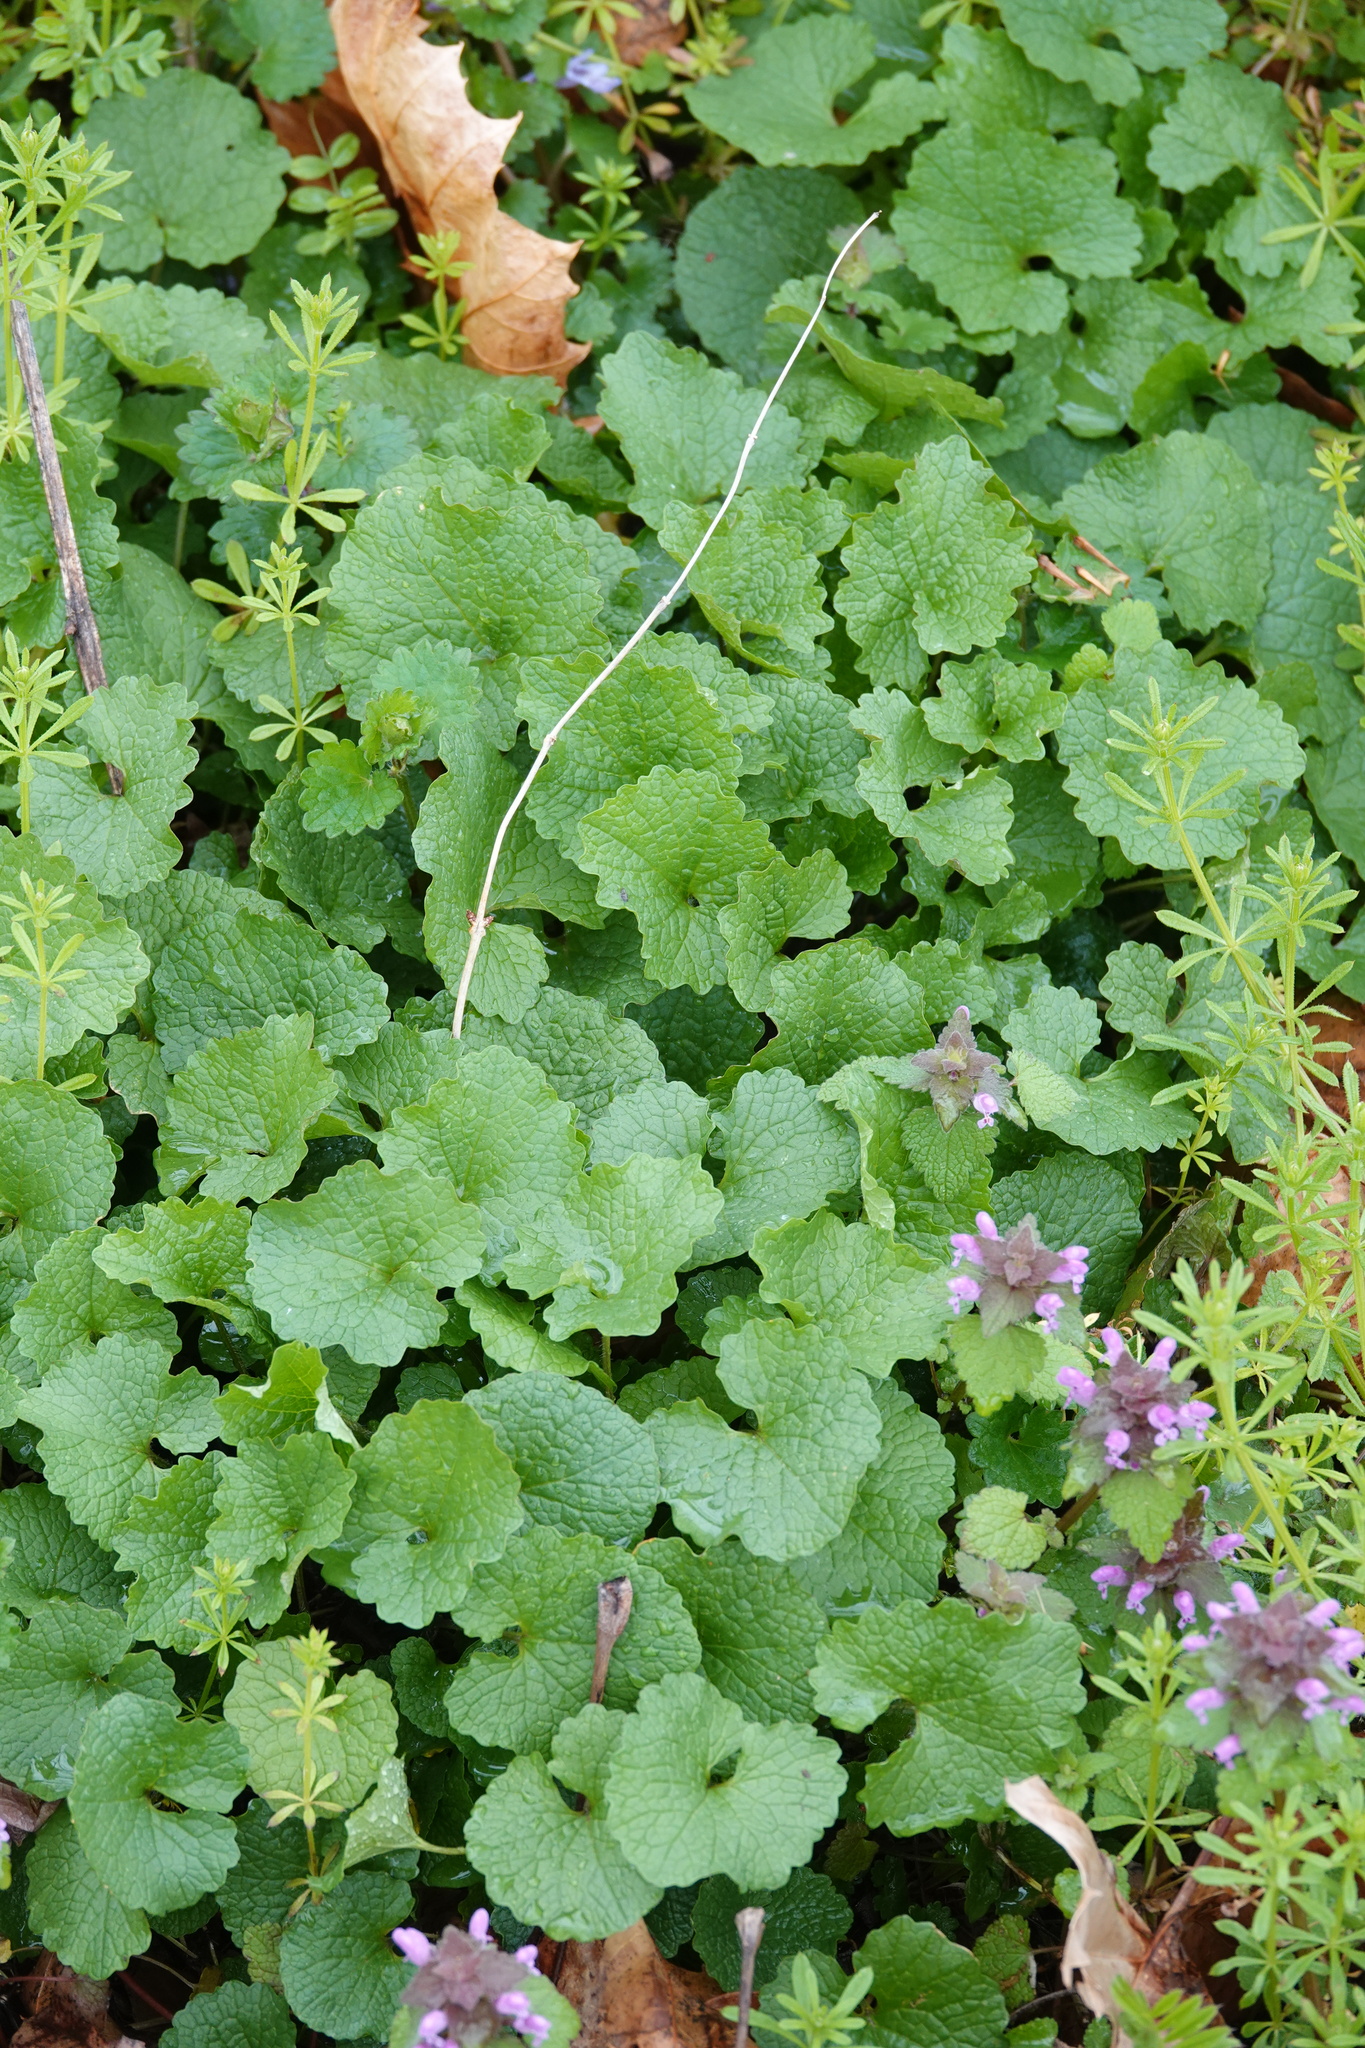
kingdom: Plantae
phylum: Tracheophyta
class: Magnoliopsida
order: Brassicales
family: Brassicaceae
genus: Alliaria
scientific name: Alliaria petiolata
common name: Garlic mustard
